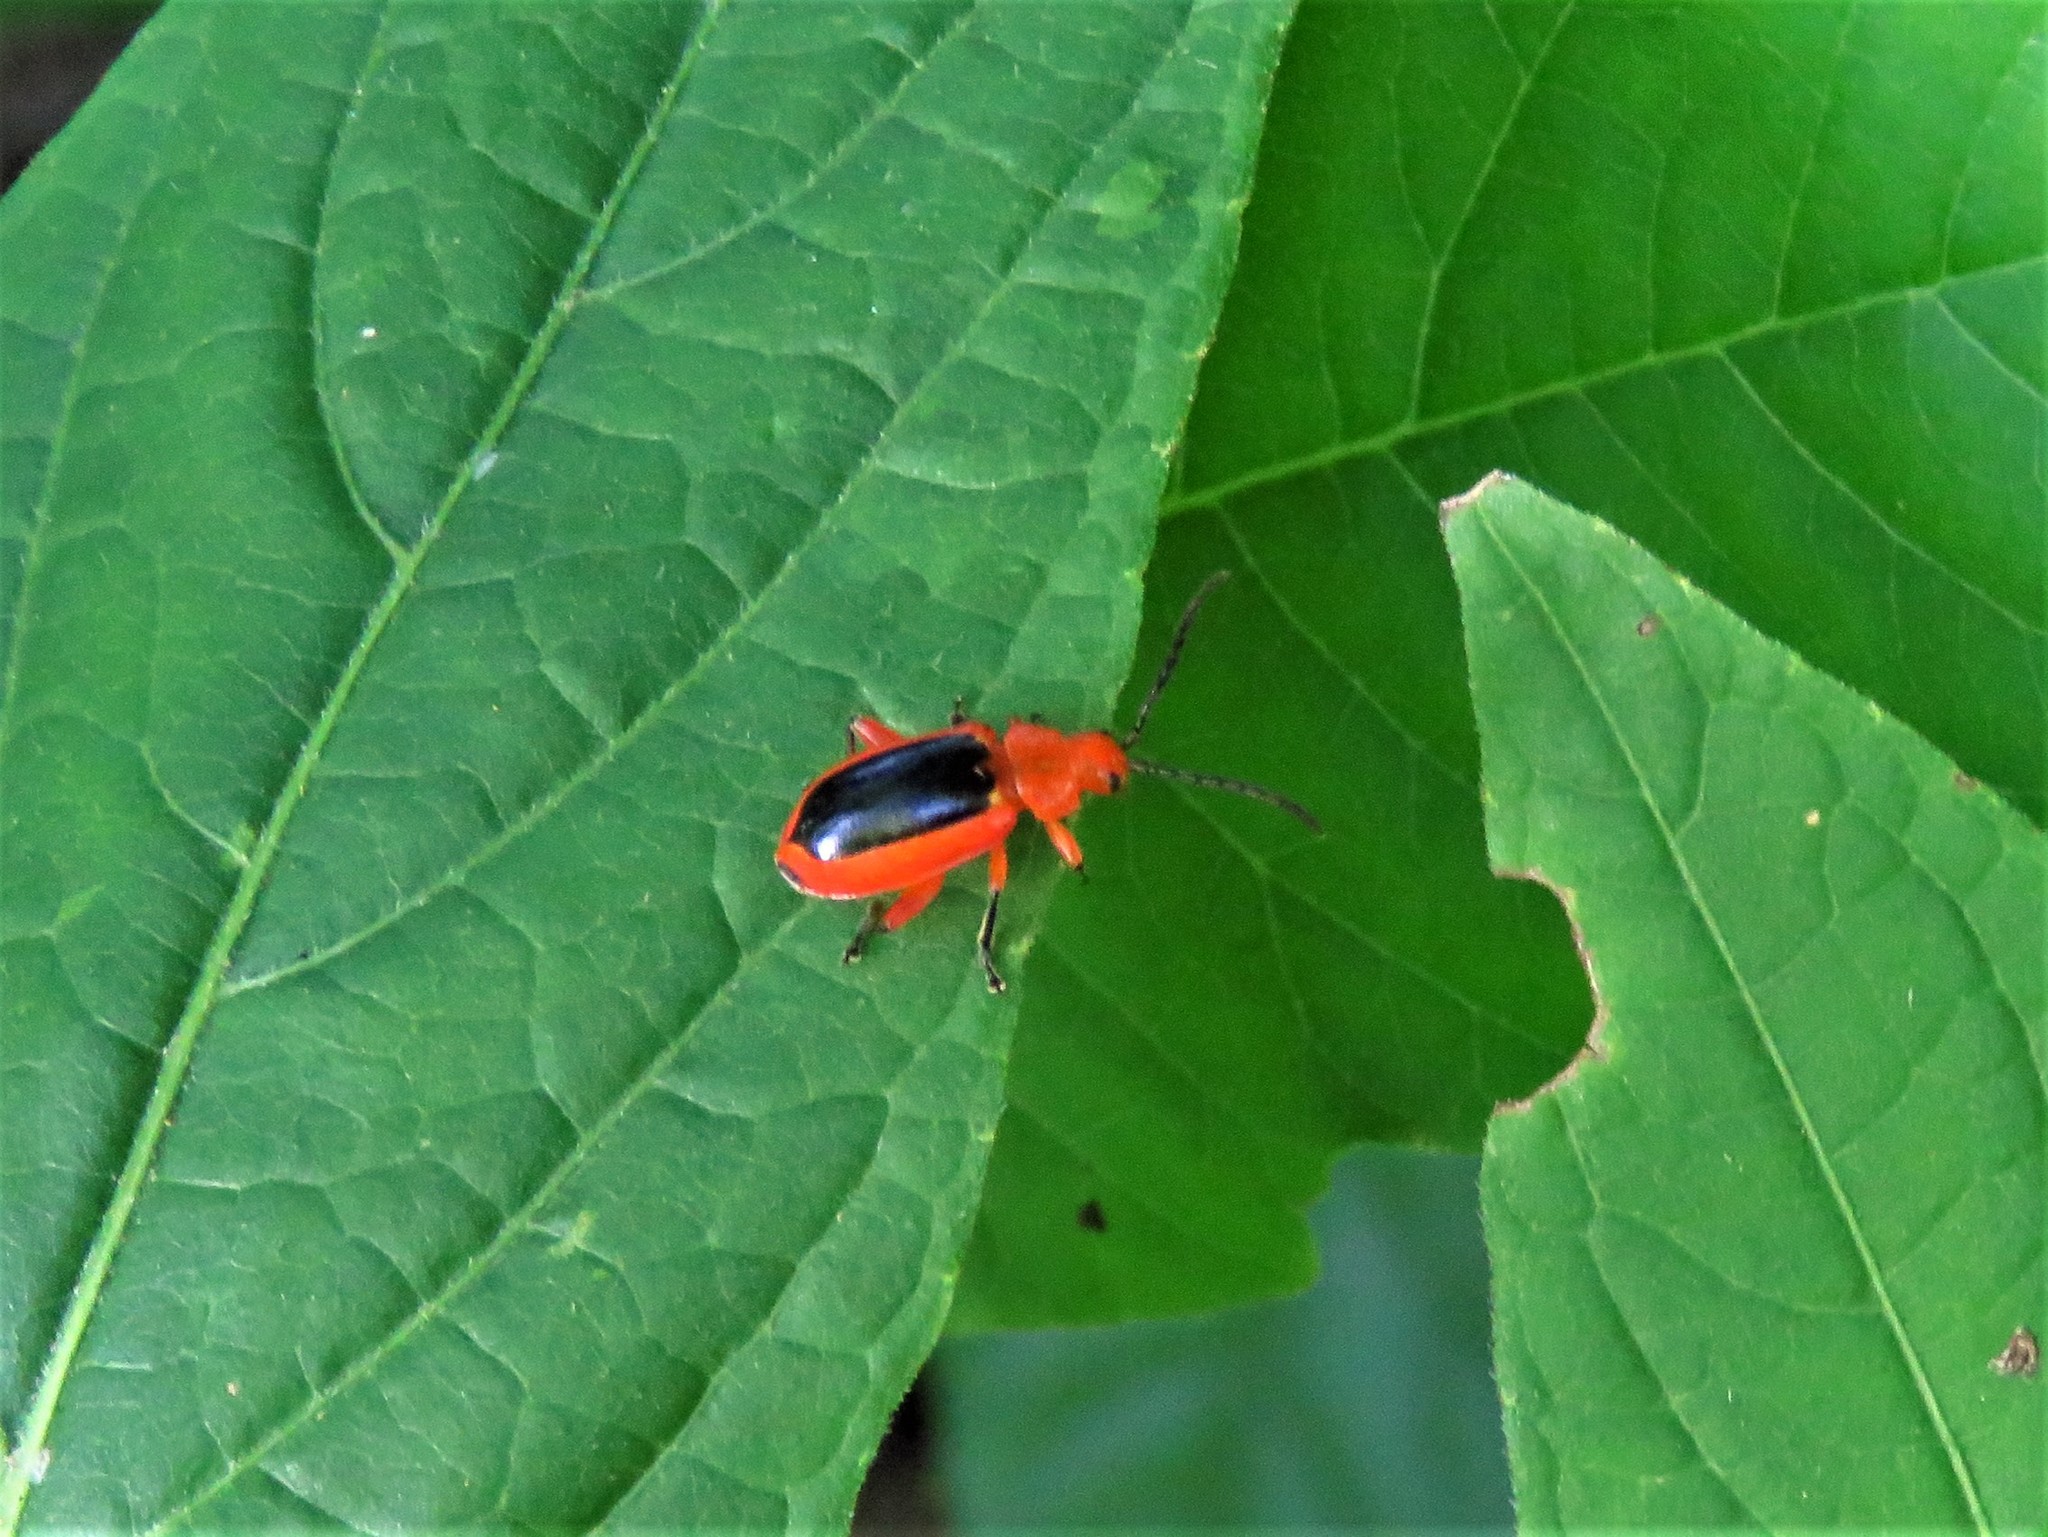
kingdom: Animalia
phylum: Arthropoda
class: Insecta
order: Coleoptera
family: Chrysomelidae
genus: Disonycha
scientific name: Disonycha discoidea
